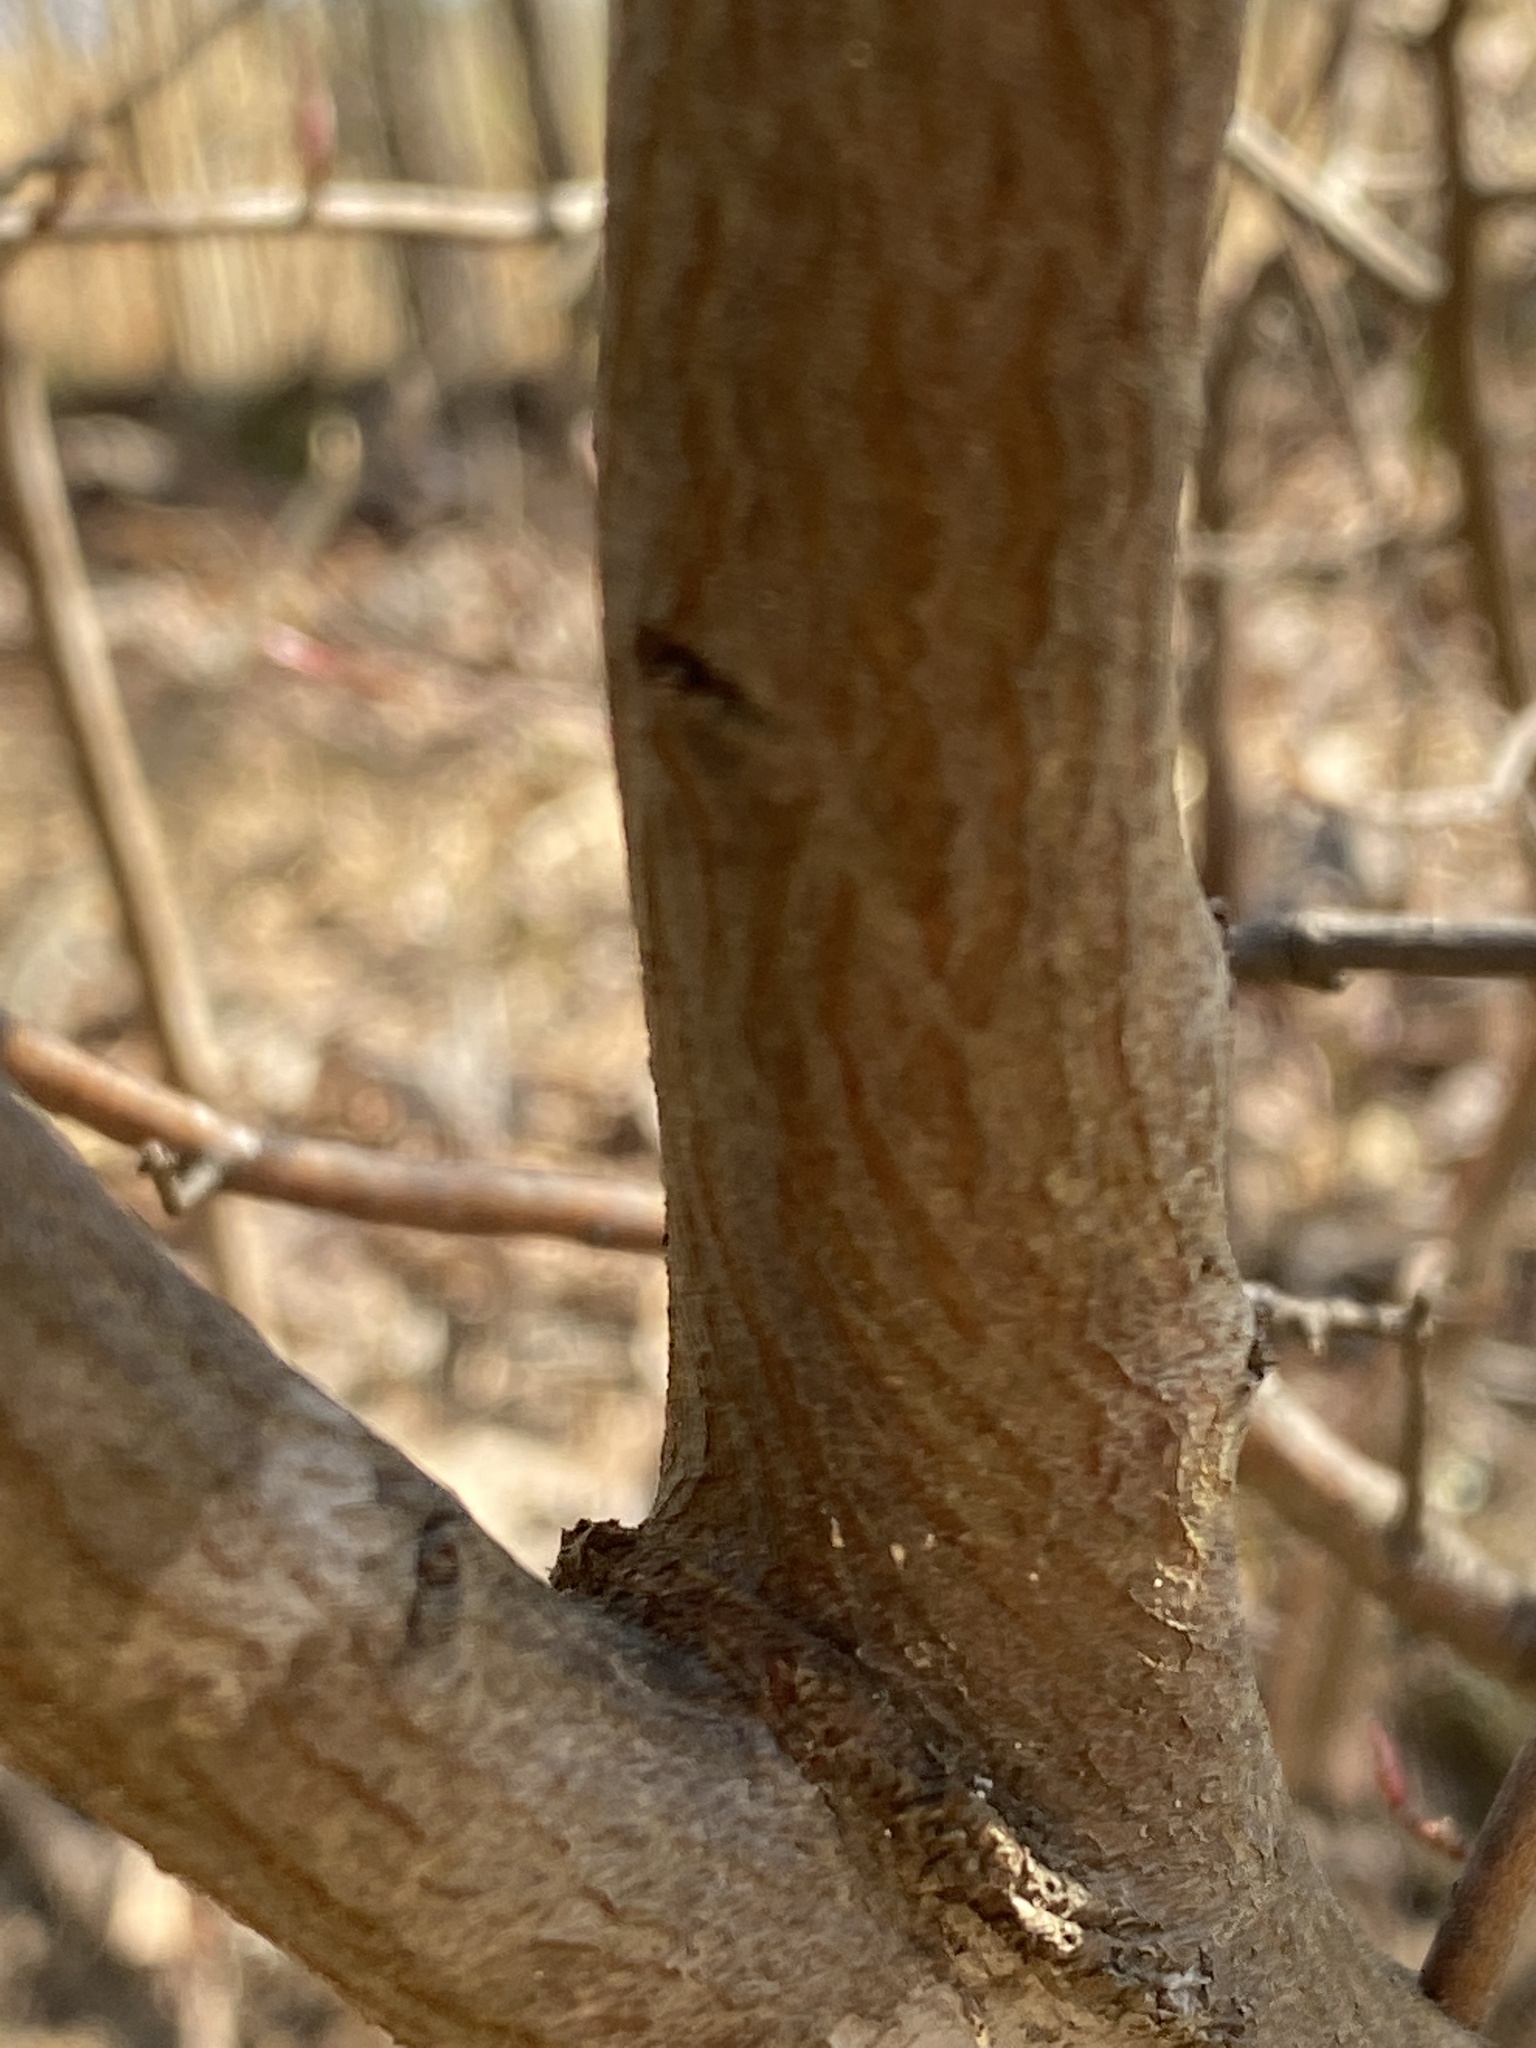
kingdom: Plantae
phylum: Tracheophyta
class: Magnoliopsida
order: Rosales
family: Rosaceae
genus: Amelanchier
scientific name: Amelanchier
